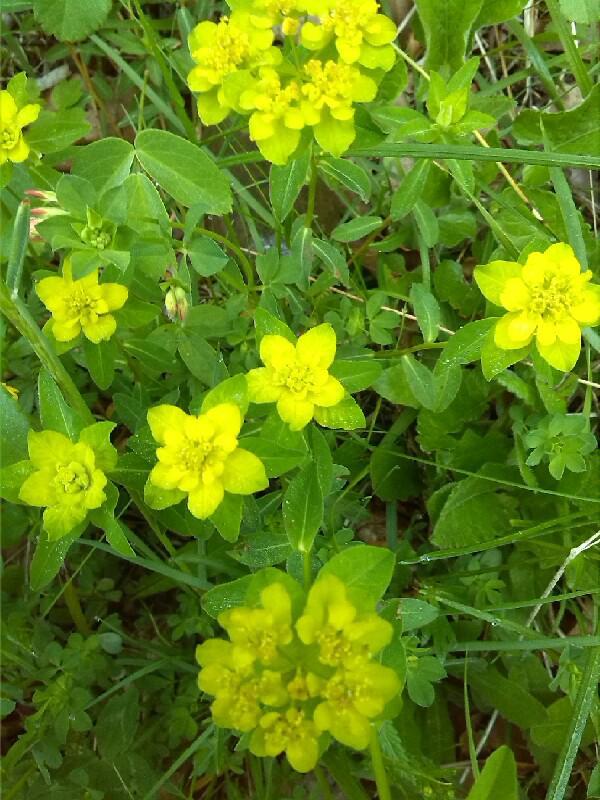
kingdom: Plantae
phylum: Tracheophyta
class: Magnoliopsida
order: Malpighiales
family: Euphorbiaceae
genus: Euphorbia
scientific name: Euphorbia verrucosa
